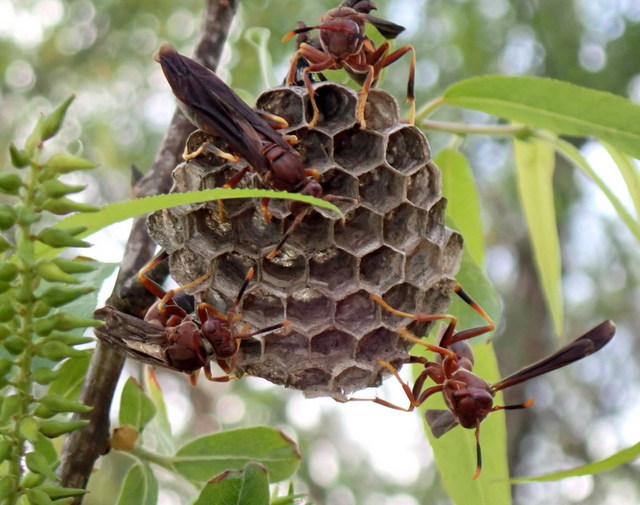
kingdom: Animalia
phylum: Arthropoda
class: Insecta
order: Hymenoptera
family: Eumenidae
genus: Polistes
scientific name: Polistes annularis
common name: Ringed paper wasp
